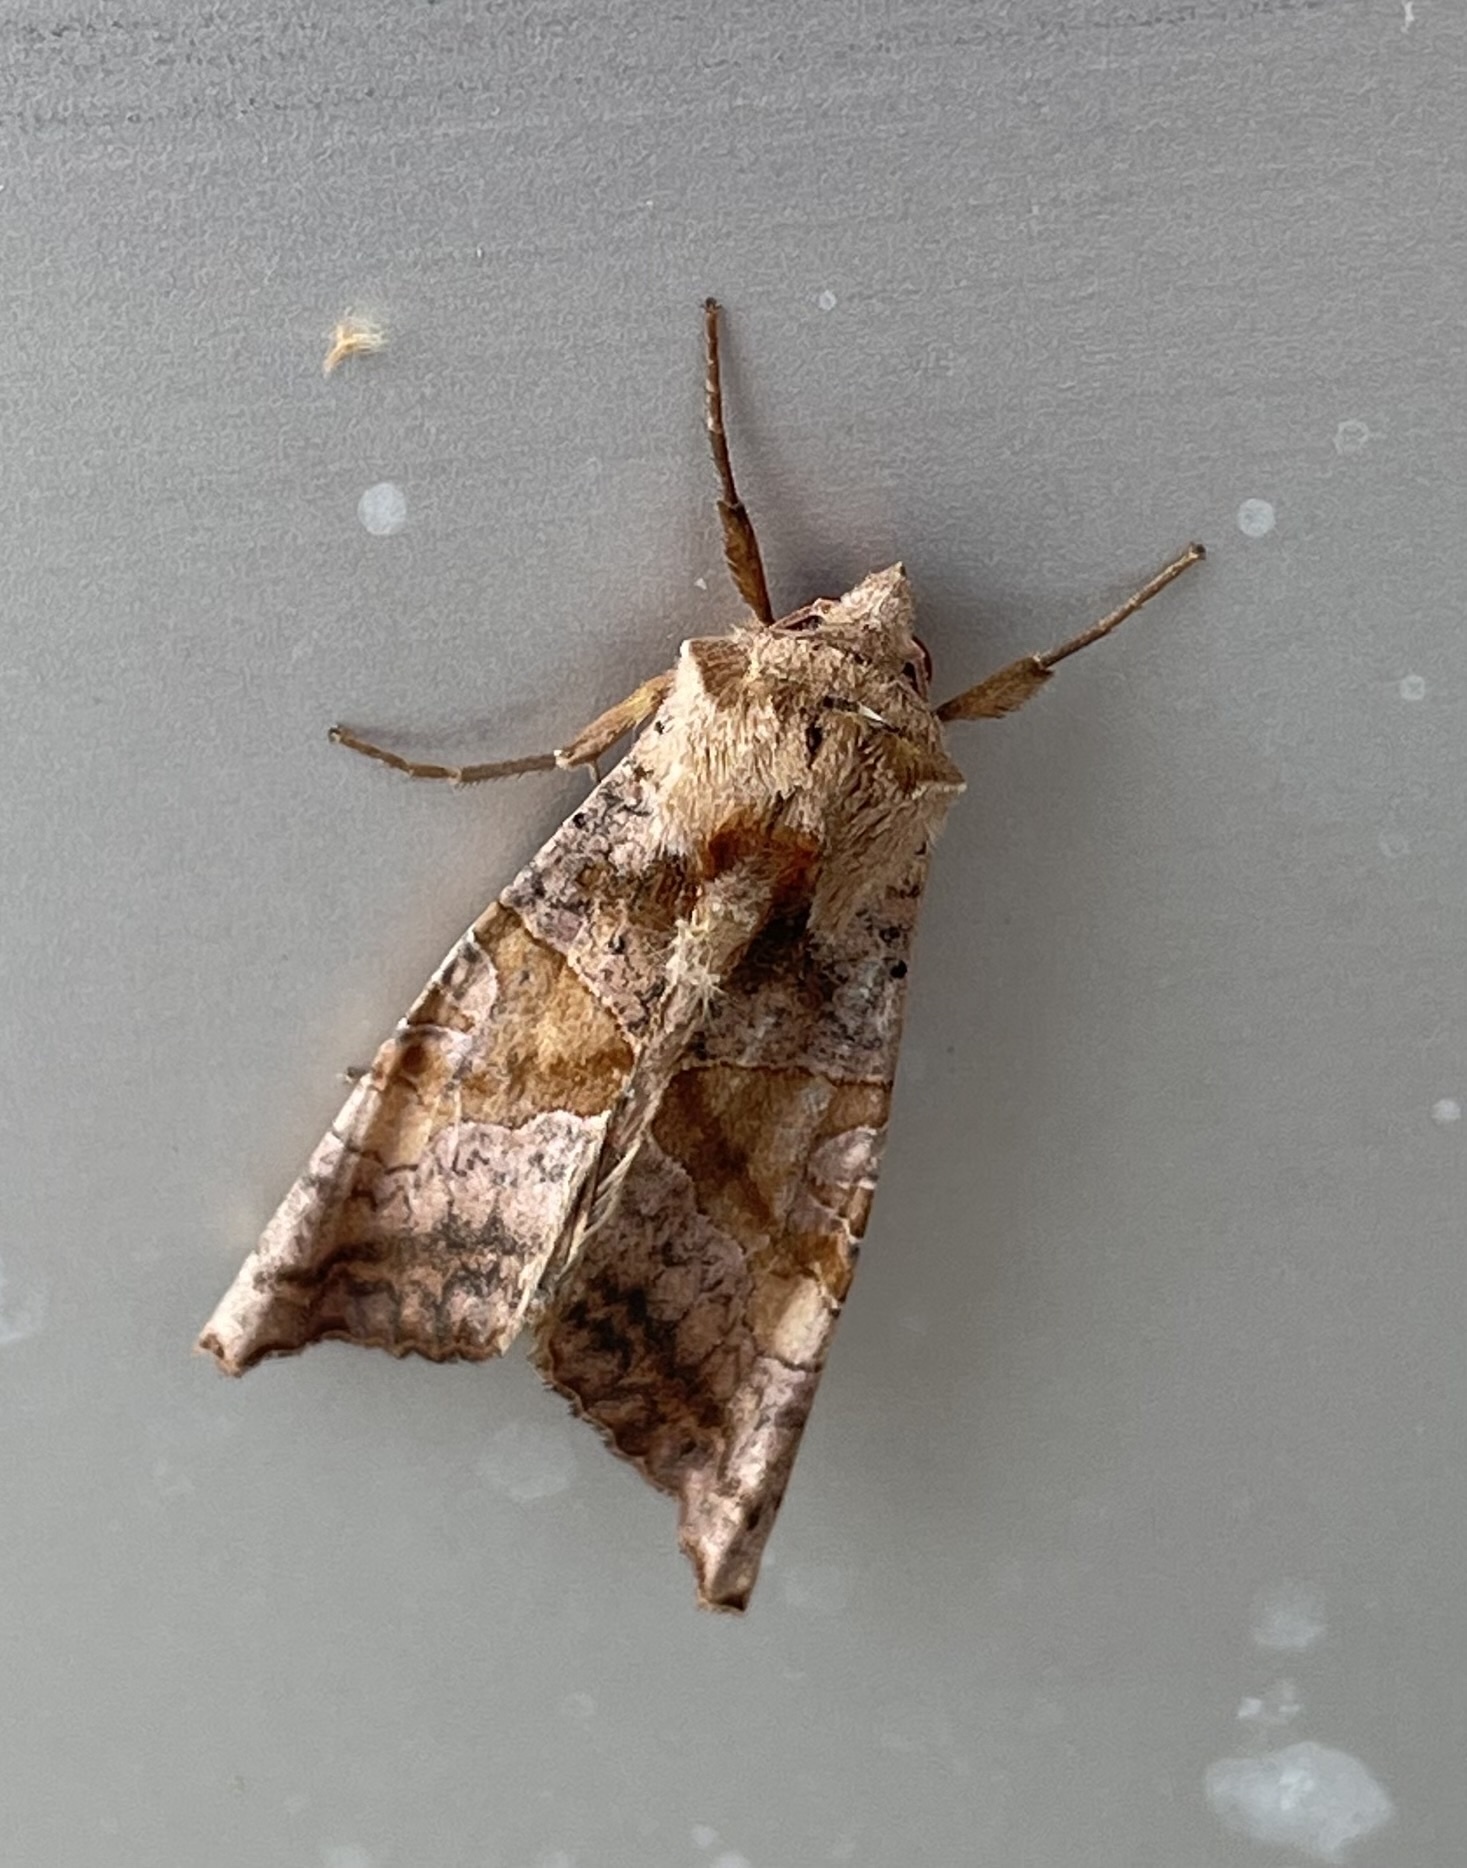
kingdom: Animalia
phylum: Arthropoda
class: Insecta
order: Lepidoptera
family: Noctuidae
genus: Phlogophora
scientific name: Phlogophora periculosa
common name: Brown angle shades
